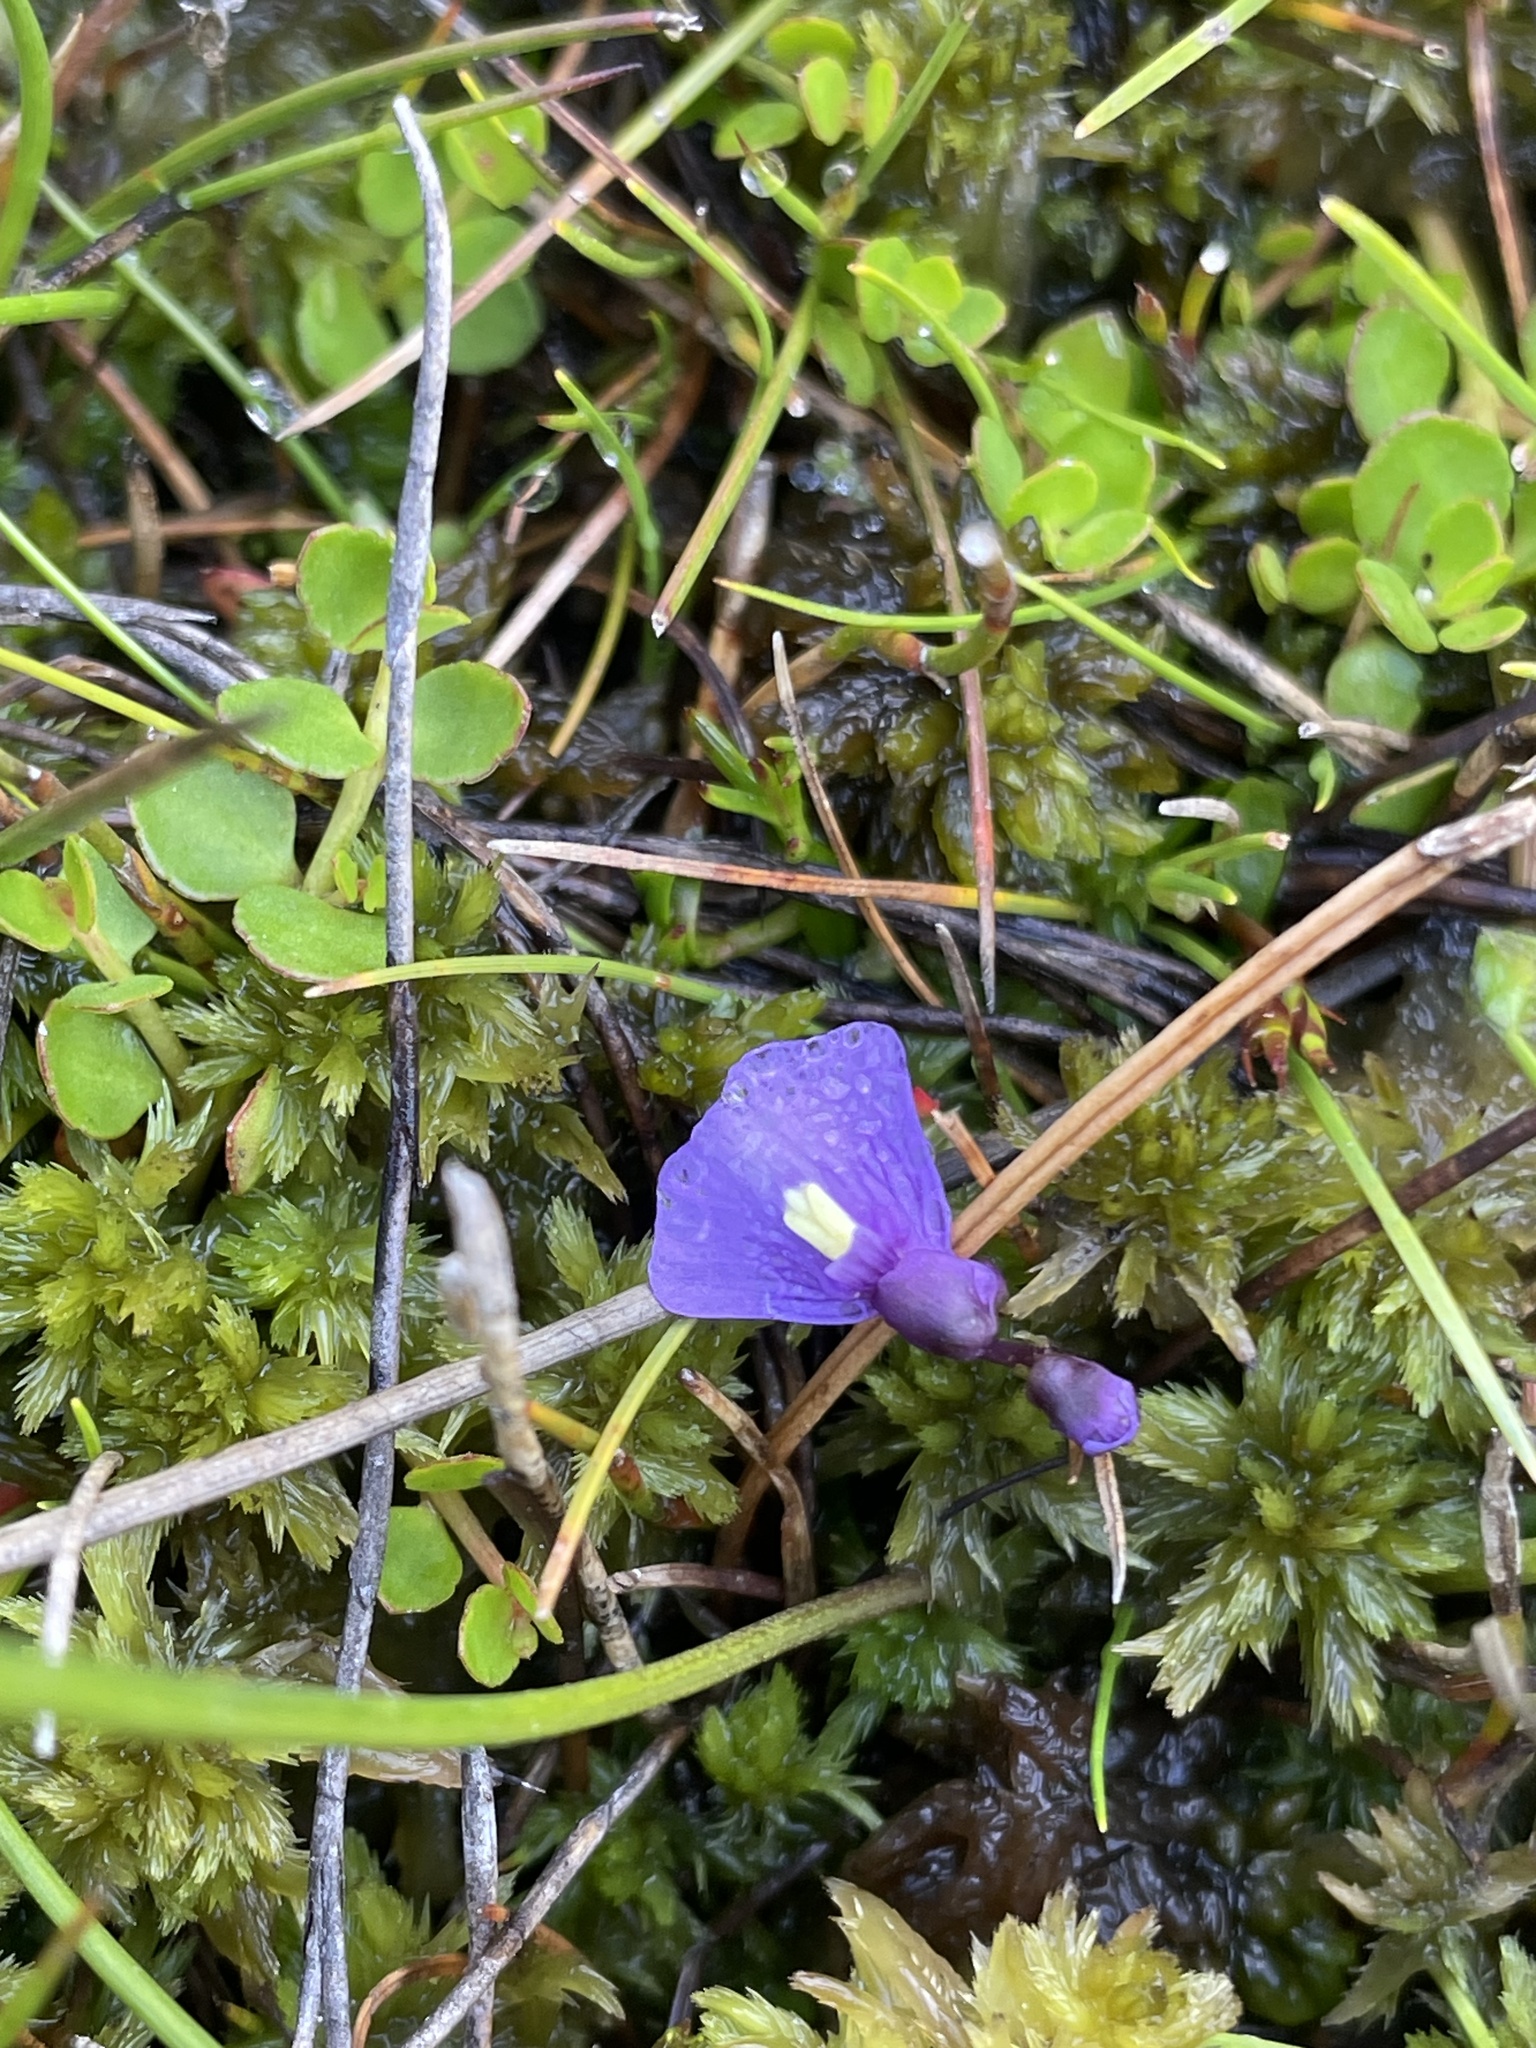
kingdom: Plantae
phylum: Tracheophyta
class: Magnoliopsida
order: Lamiales
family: Lentibulariaceae
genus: Utricularia
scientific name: Utricularia dichotoma
